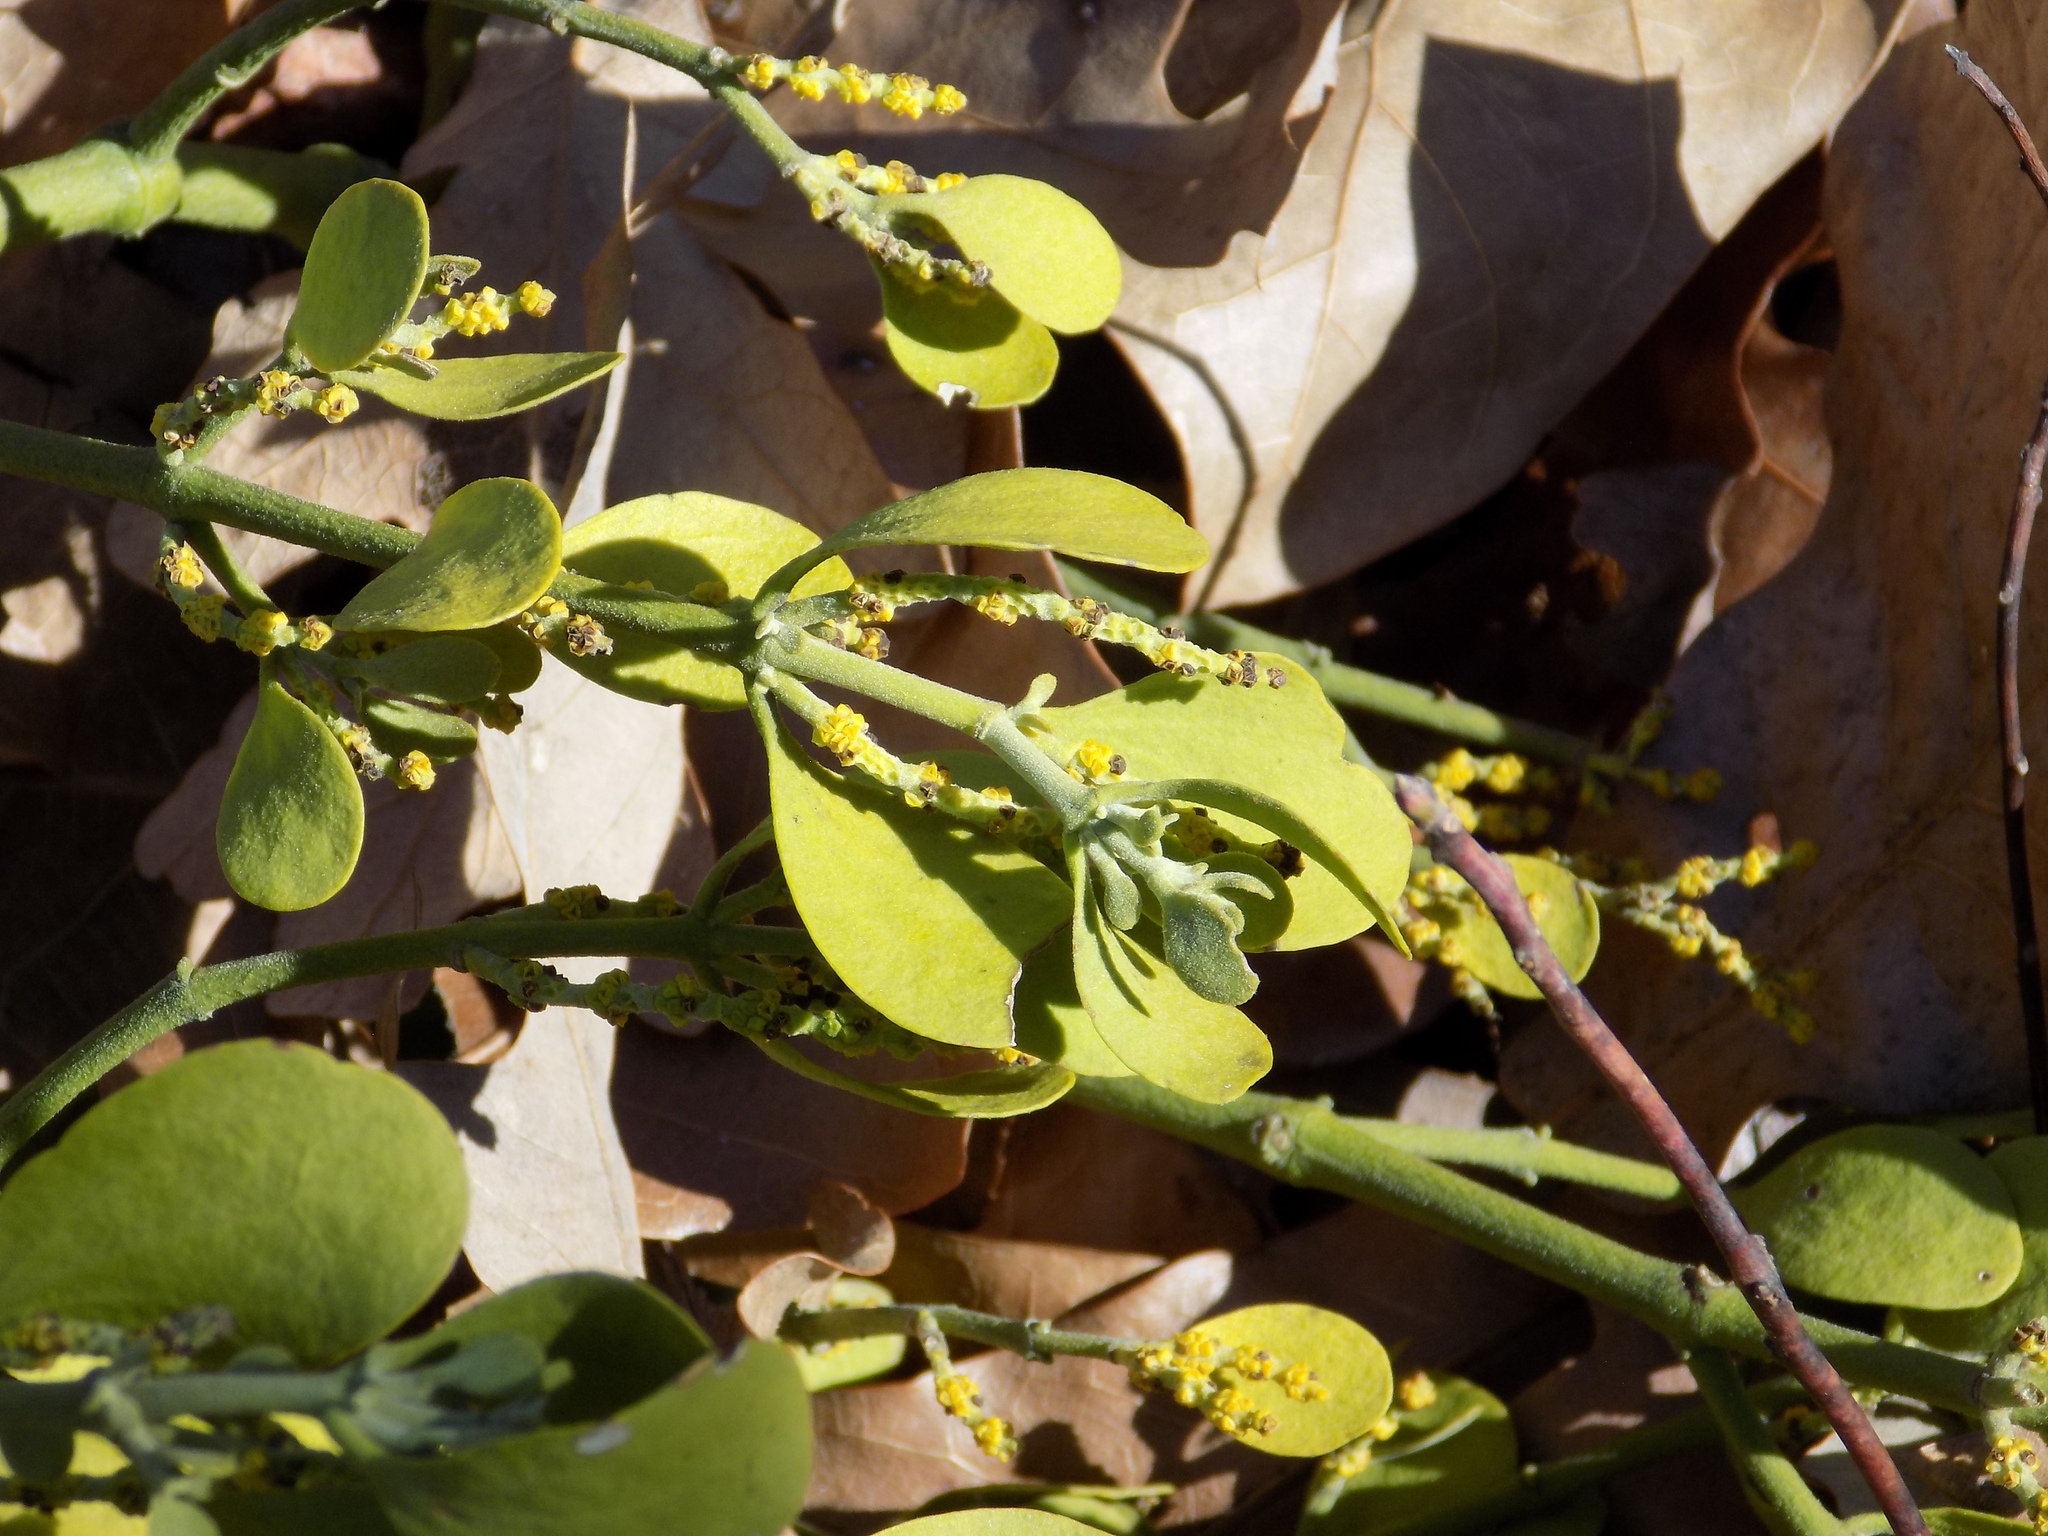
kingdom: Plantae
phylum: Tracheophyta
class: Magnoliopsida
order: Santalales
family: Viscaceae
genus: Phoradendron
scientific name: Phoradendron leucarpum
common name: Pacific mistletoe
